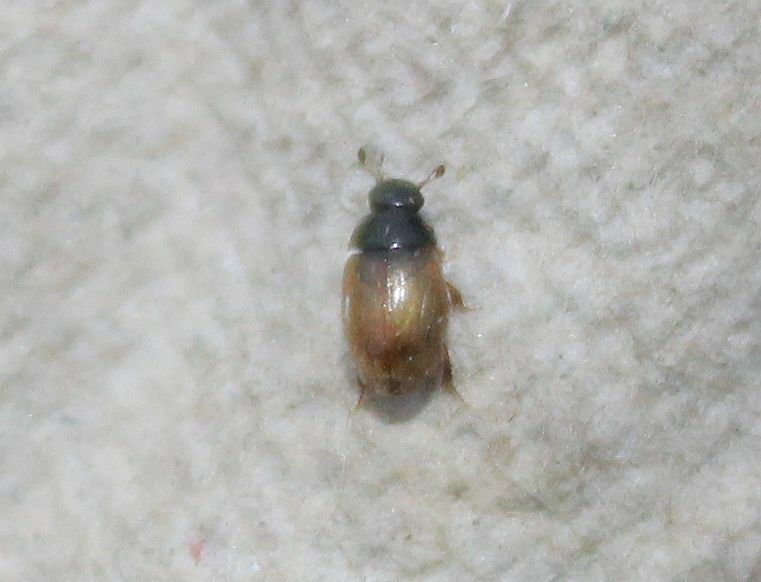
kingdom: Animalia
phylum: Arthropoda
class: Insecta
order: Coleoptera
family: Hydrophilidae
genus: Cercyon
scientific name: Cercyon quisquilius
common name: Water scavenger beetle
